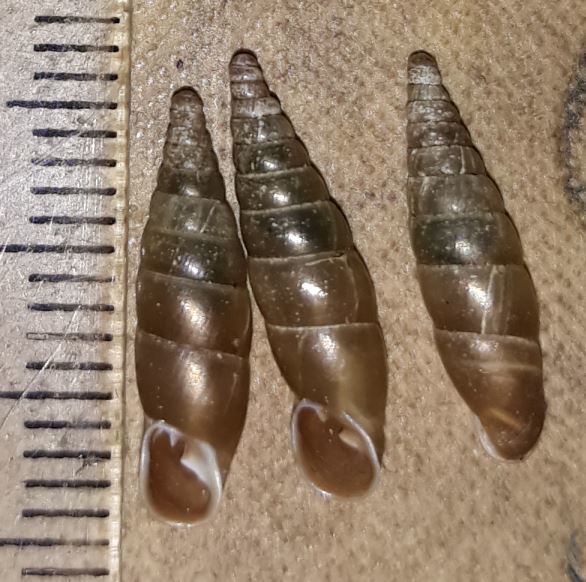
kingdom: Animalia
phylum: Mollusca
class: Gastropoda
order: Stylommatophora
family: Clausiliidae
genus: Cochlodina
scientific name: Cochlodina laminata
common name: Plaited door snail
